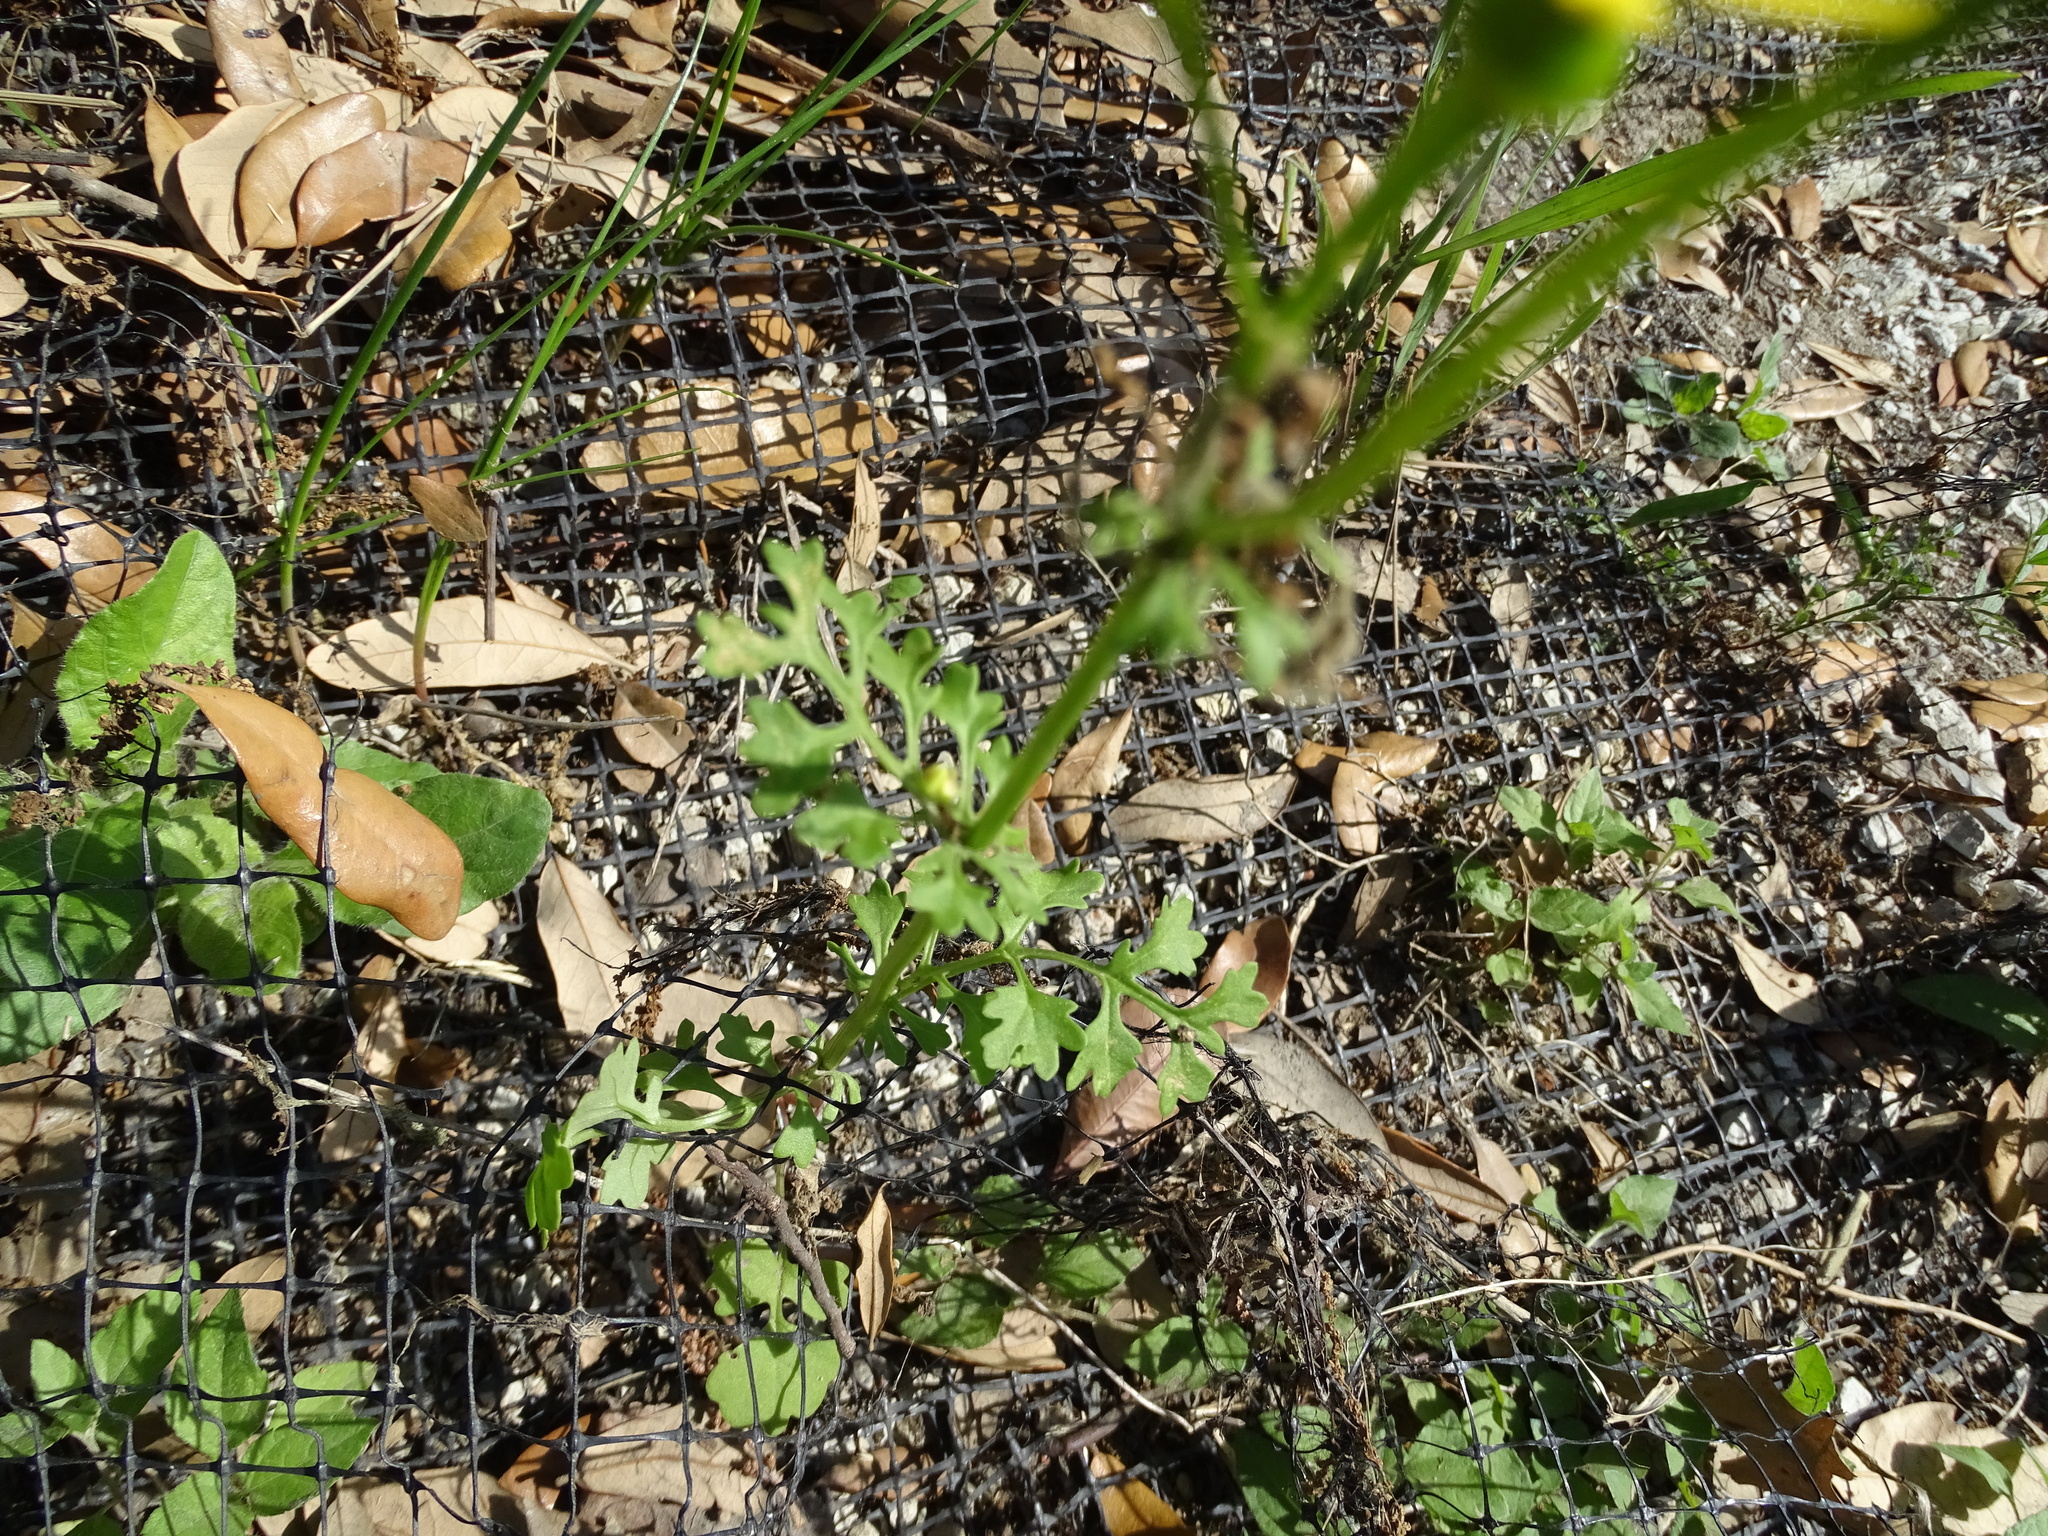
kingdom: Plantae
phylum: Tracheophyta
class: Magnoliopsida
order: Asterales
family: Asteraceae
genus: Packera
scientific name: Packera tampicana
